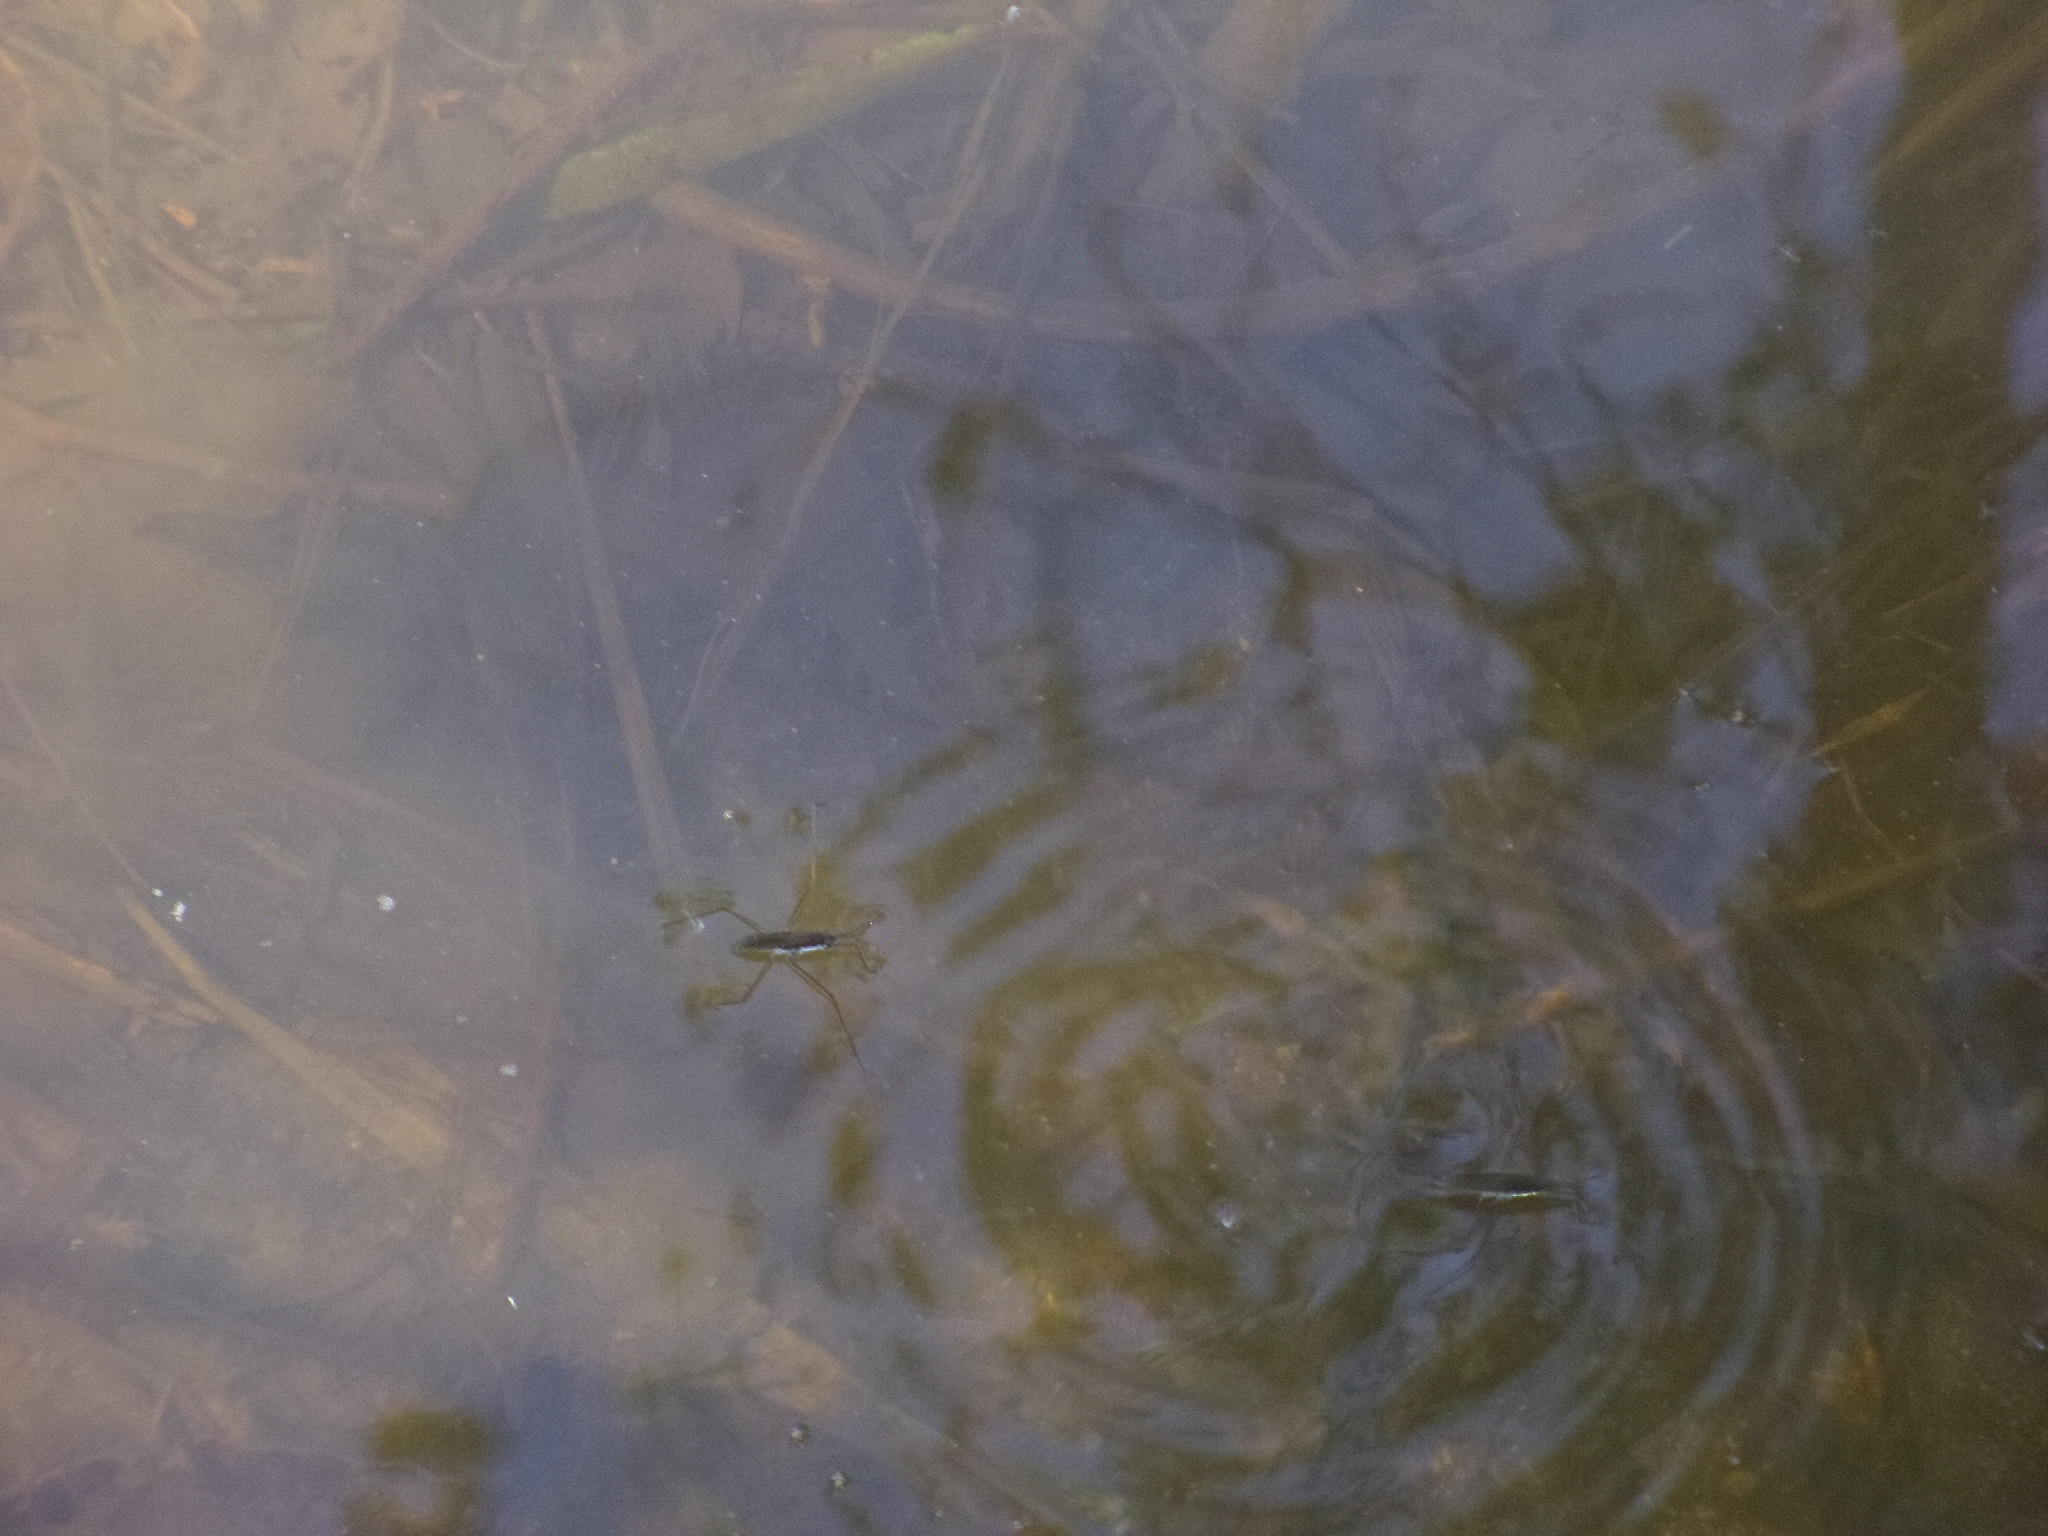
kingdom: Animalia
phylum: Arthropoda
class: Insecta
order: Hemiptera
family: Gerridae
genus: Aquarius
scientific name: Aquarius remigis
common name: Common water strider
